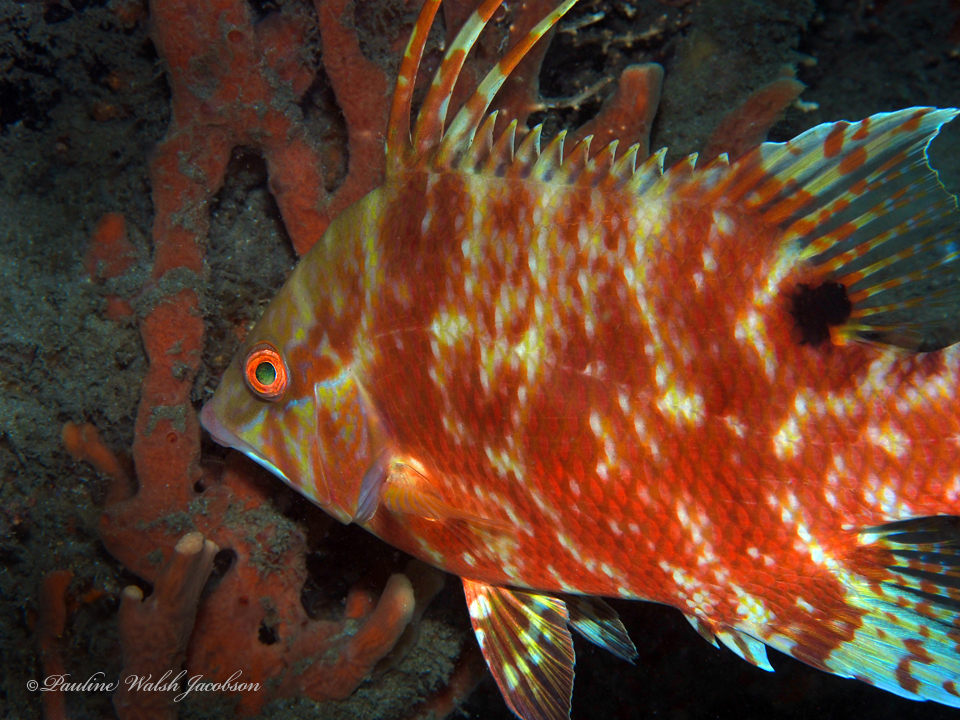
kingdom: Animalia
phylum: Chordata
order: Perciformes
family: Labridae
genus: Lachnolaimus
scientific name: Lachnolaimus maximus
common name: Hogfish
